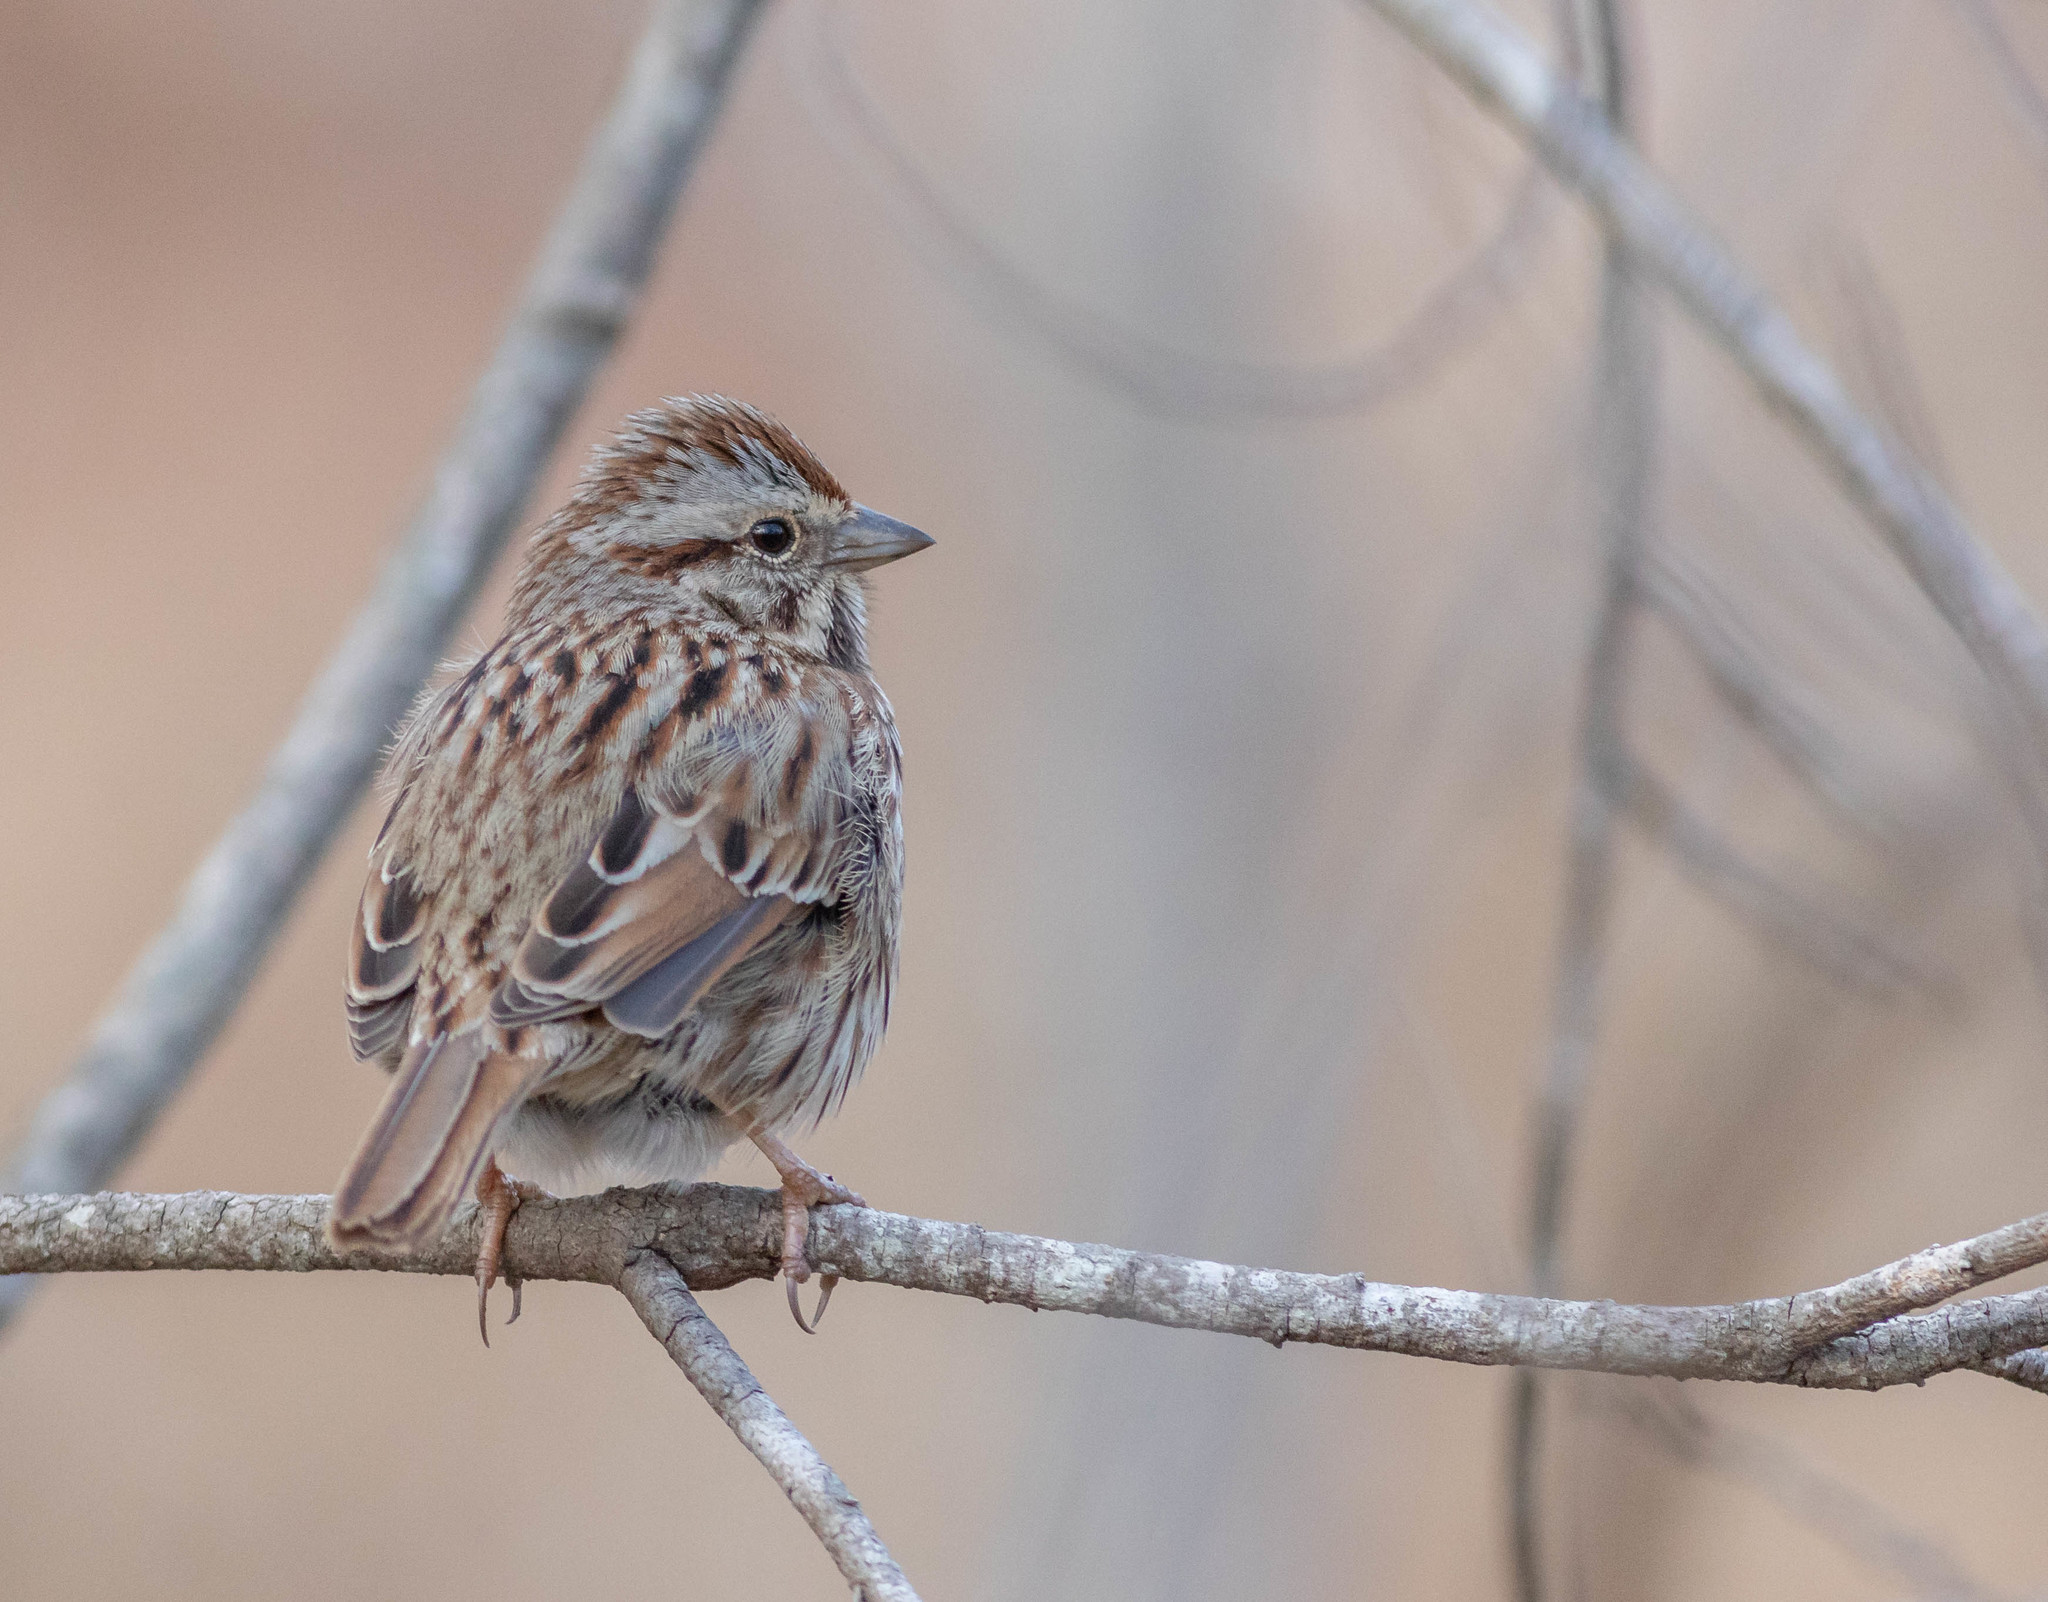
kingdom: Animalia
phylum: Chordata
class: Aves
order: Passeriformes
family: Passerellidae
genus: Melospiza
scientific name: Melospiza melodia
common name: Song sparrow
